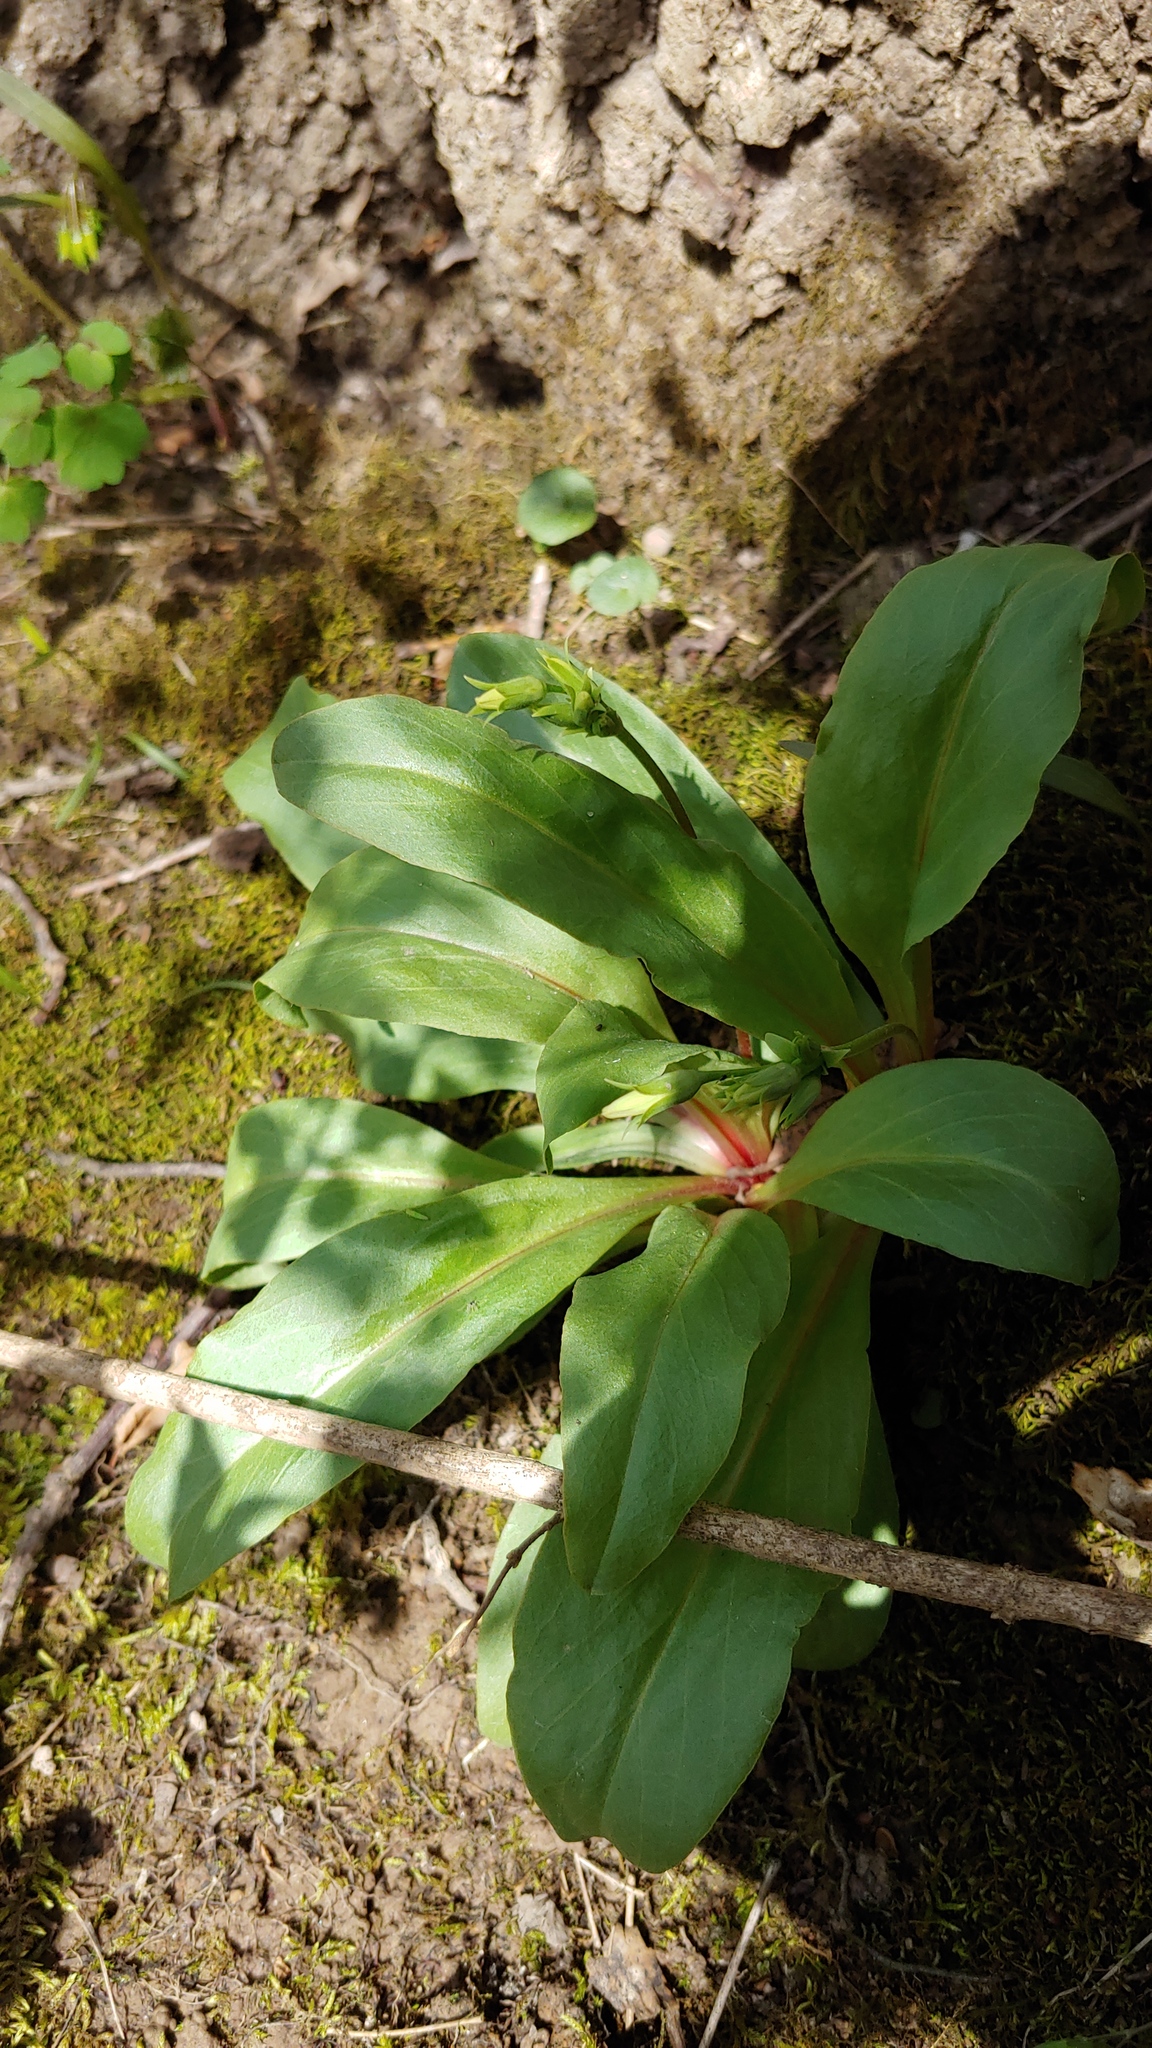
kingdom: Plantae
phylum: Tracheophyta
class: Magnoliopsida
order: Ericales
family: Primulaceae
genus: Dodecatheon
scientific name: Dodecatheon meadia
